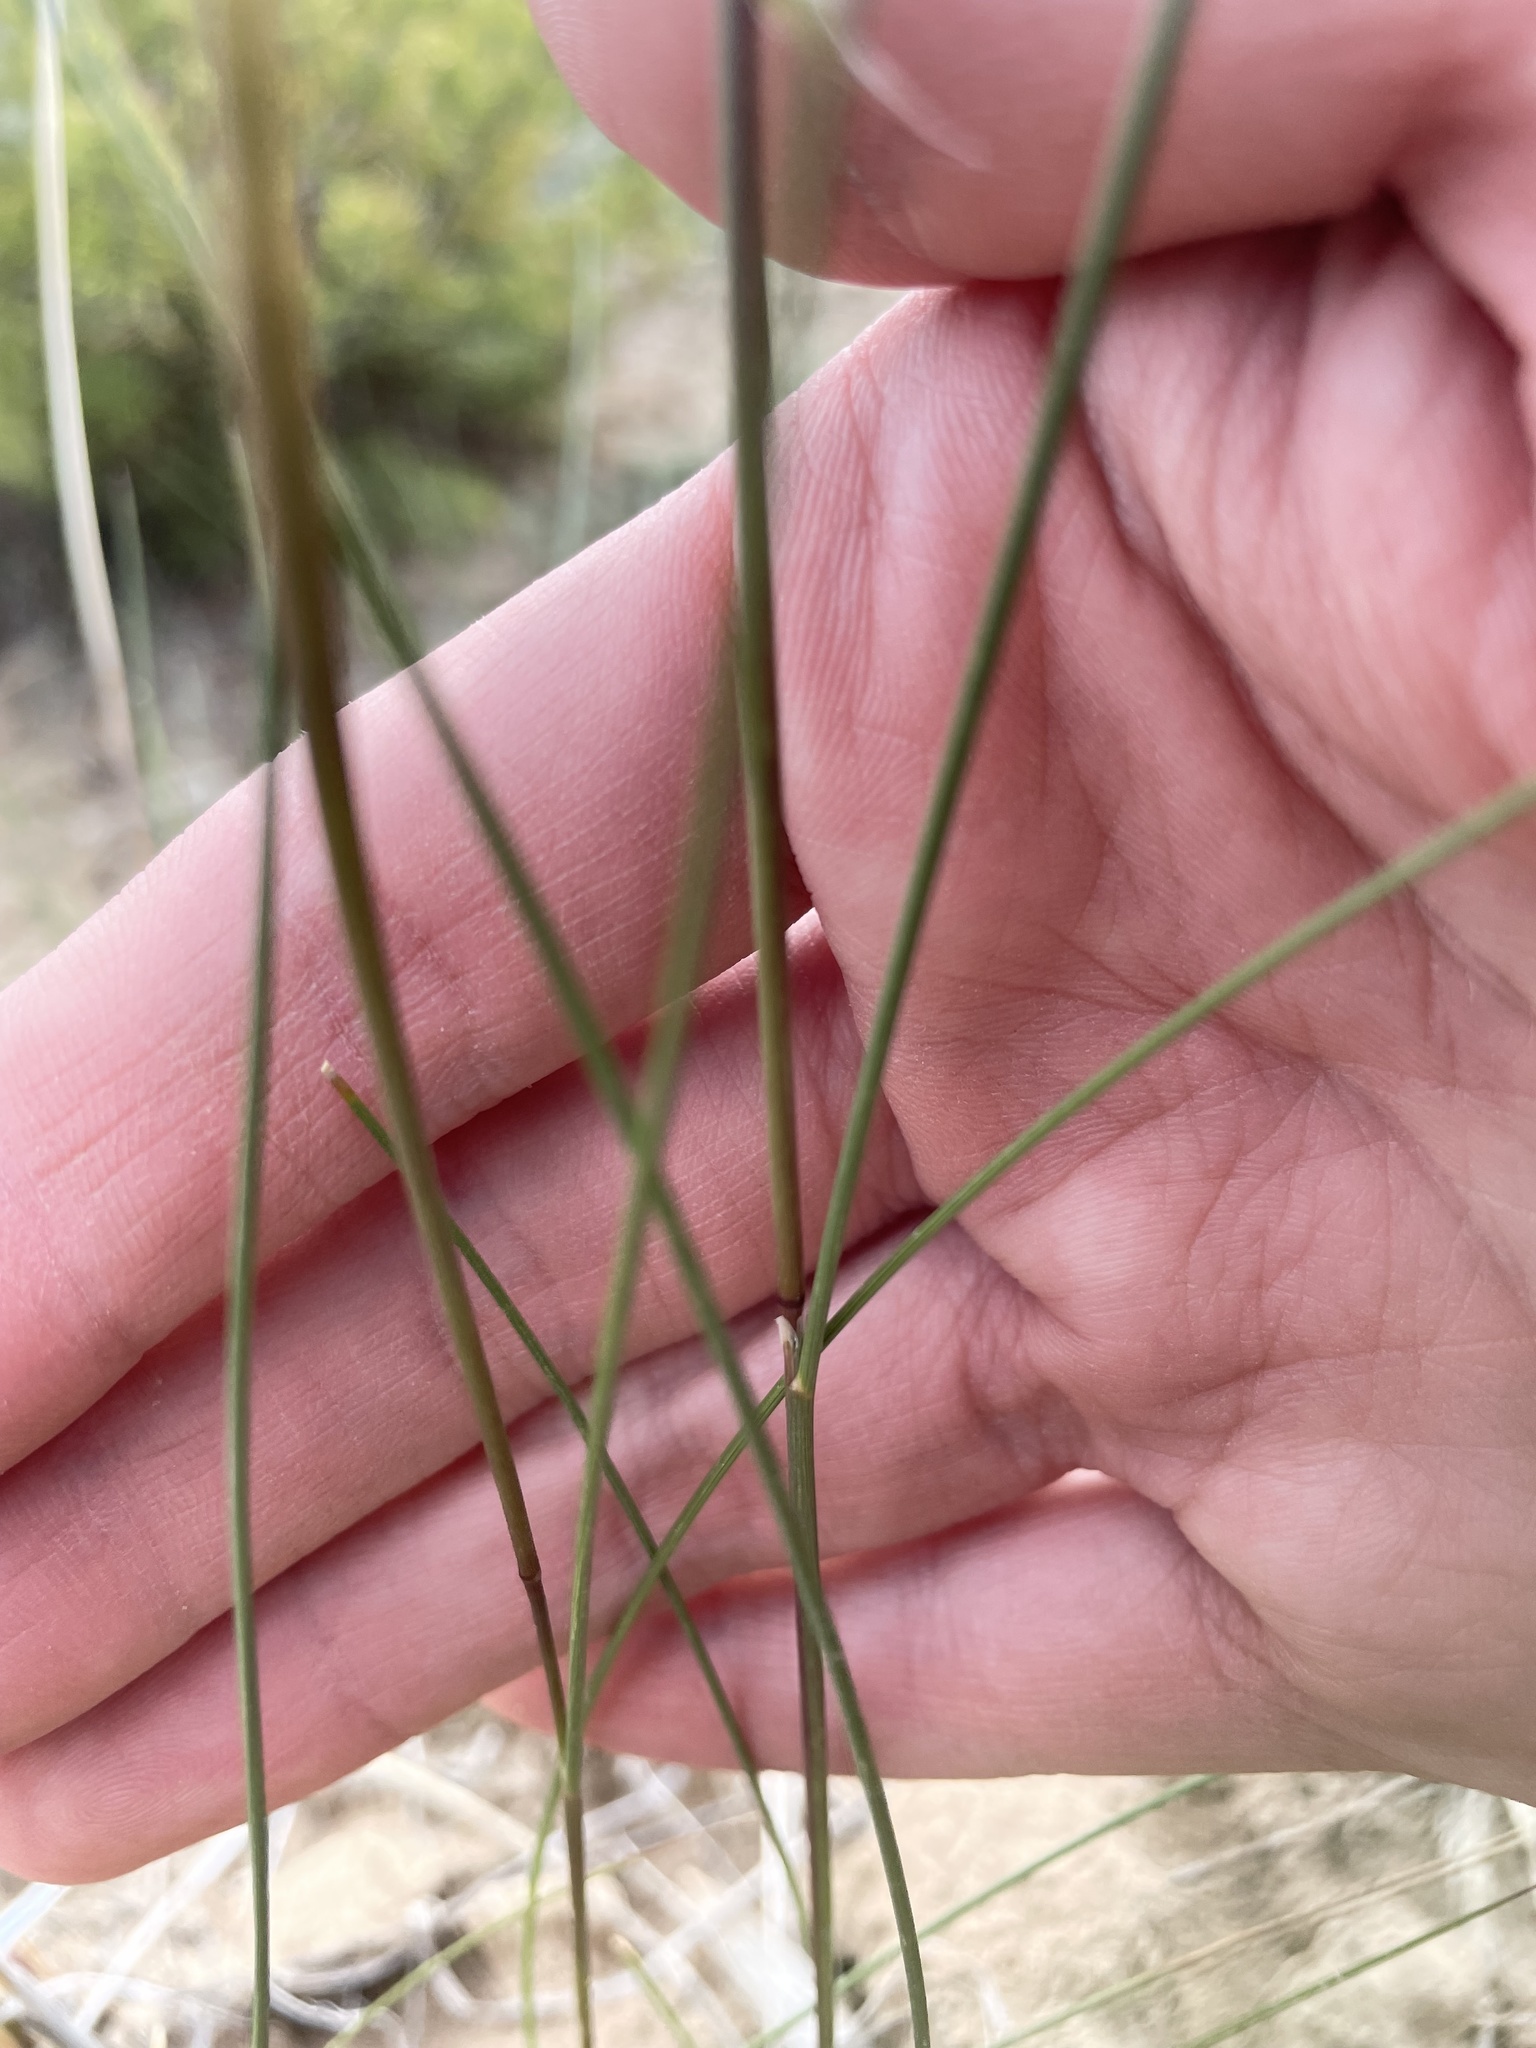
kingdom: Plantae
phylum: Tracheophyta
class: Liliopsida
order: Poales
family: Poaceae
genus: Eriocoma
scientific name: Eriocoma hymenoides
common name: Indian mountain ricegrass
